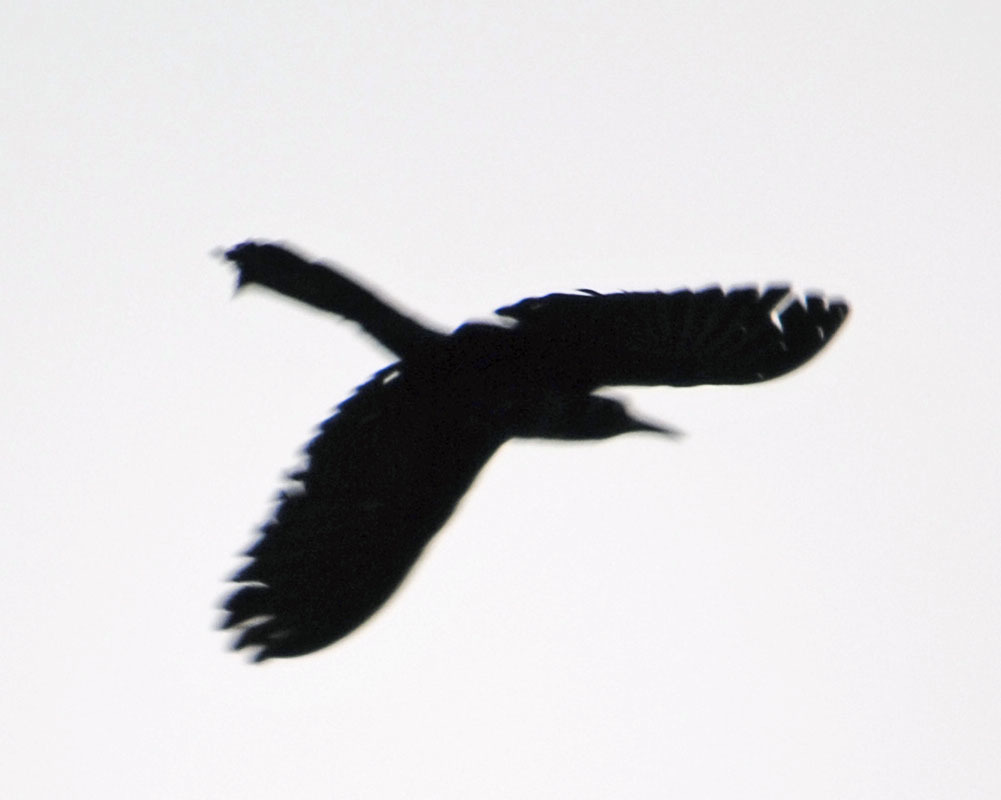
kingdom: Animalia
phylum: Chordata
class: Aves
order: Passeriformes
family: Icteridae
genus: Quiscalus
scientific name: Quiscalus mexicanus
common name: Great-tailed grackle
